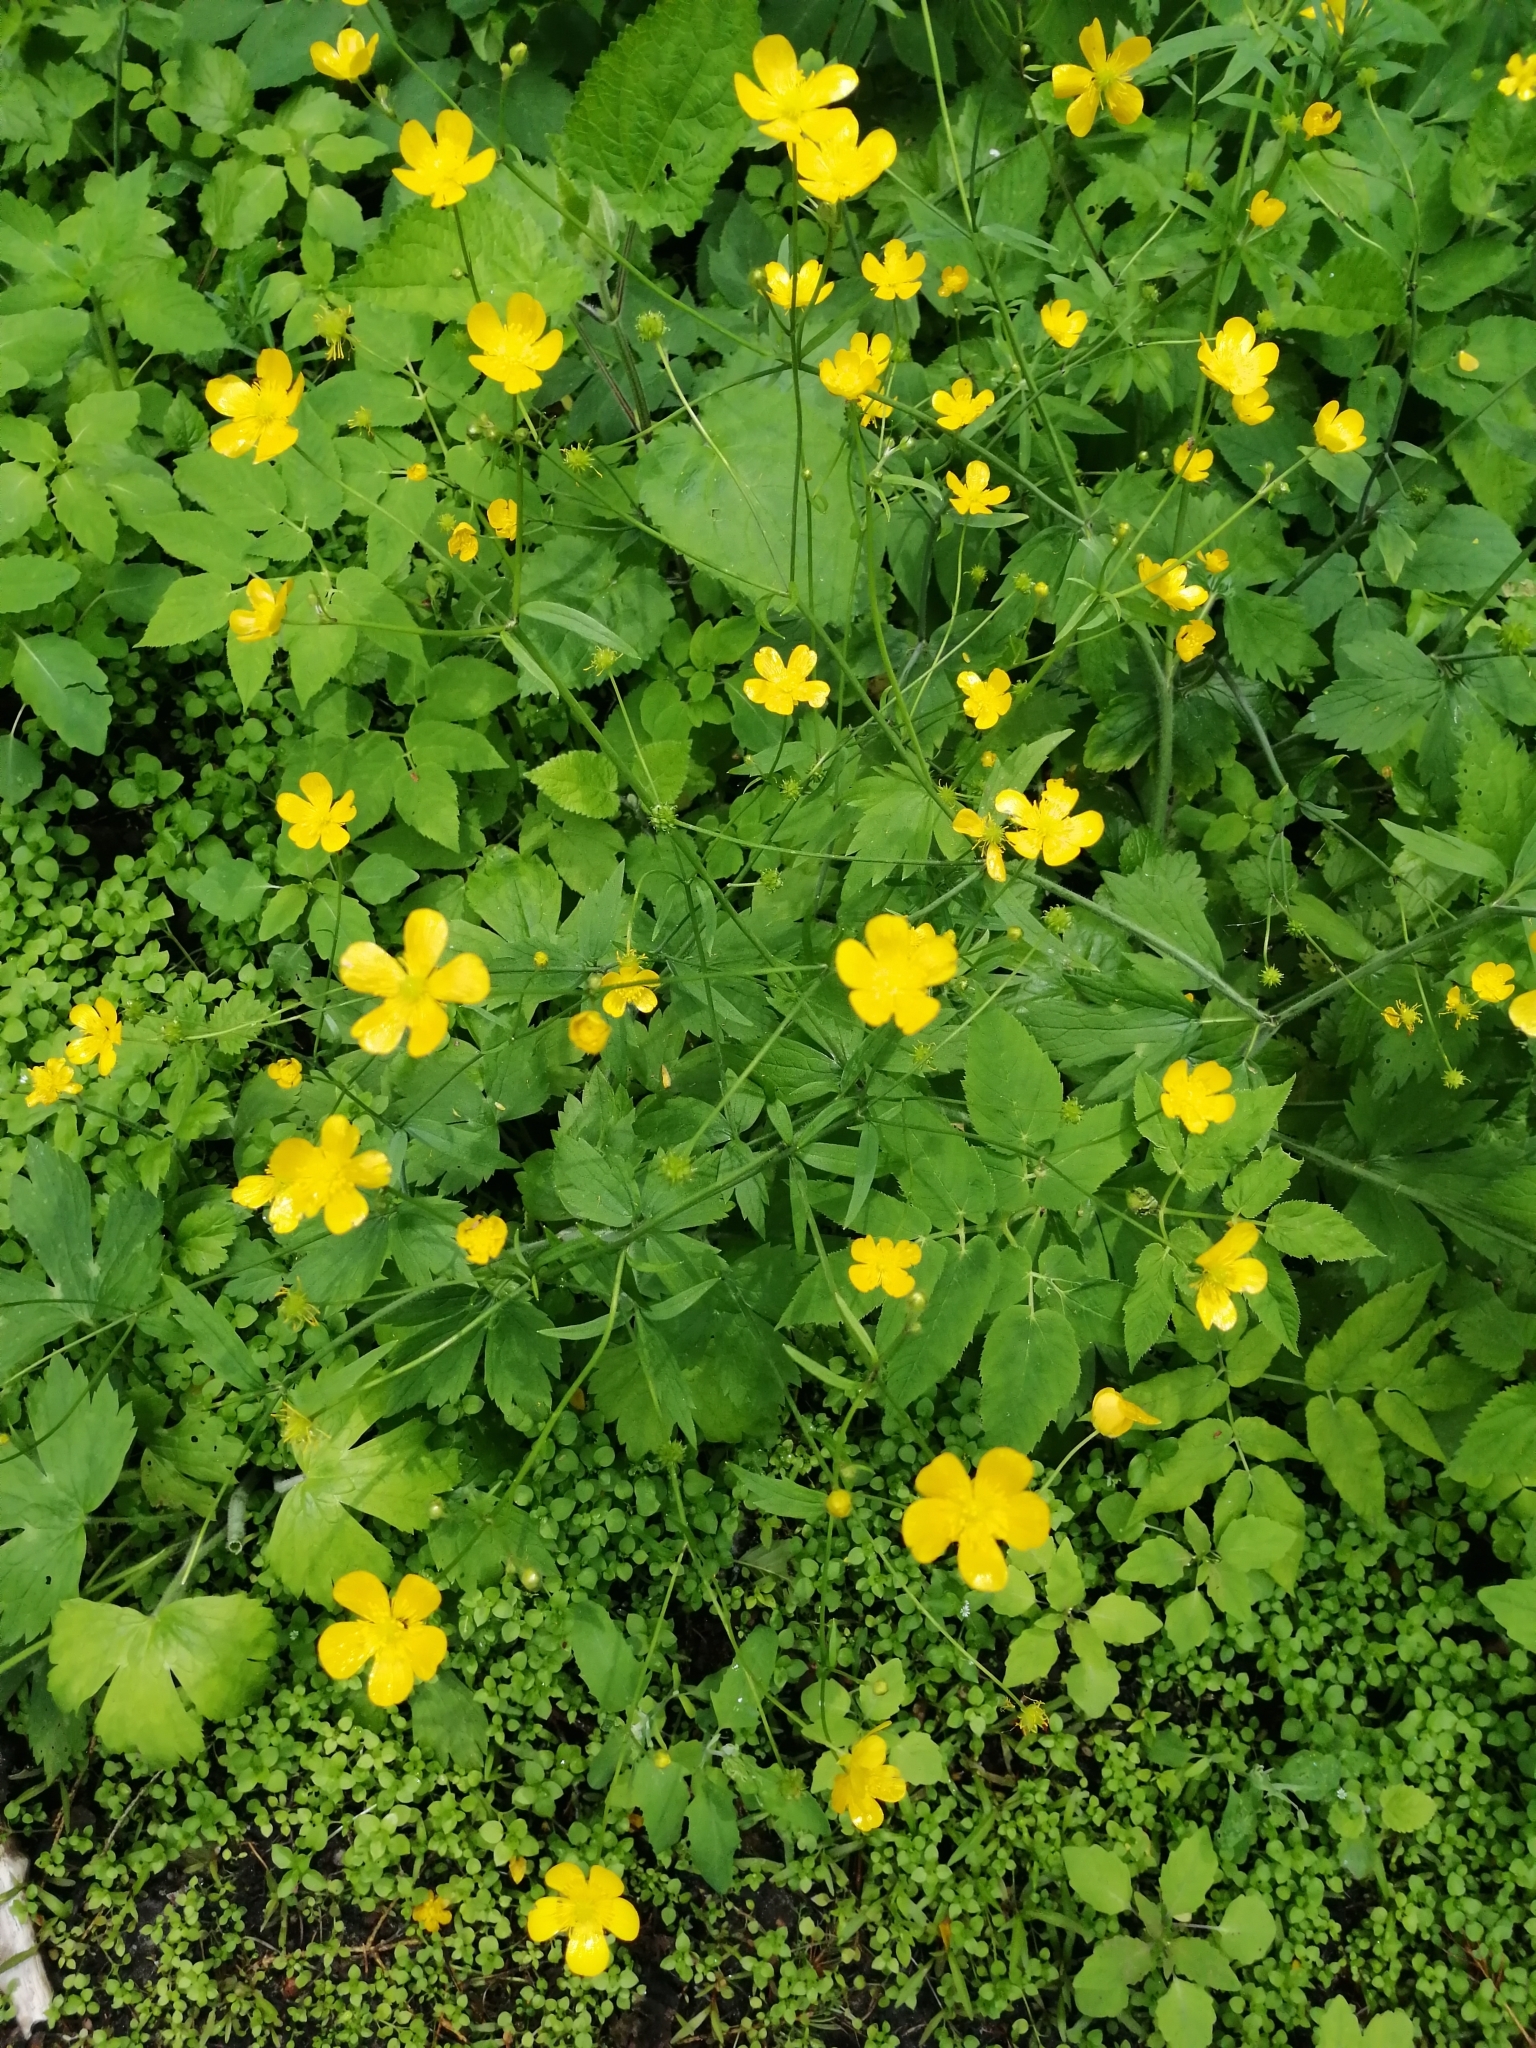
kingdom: Plantae
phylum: Tracheophyta
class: Magnoliopsida
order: Ranunculales
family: Ranunculaceae
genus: Ranunculus
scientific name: Ranunculus lanuginosus
